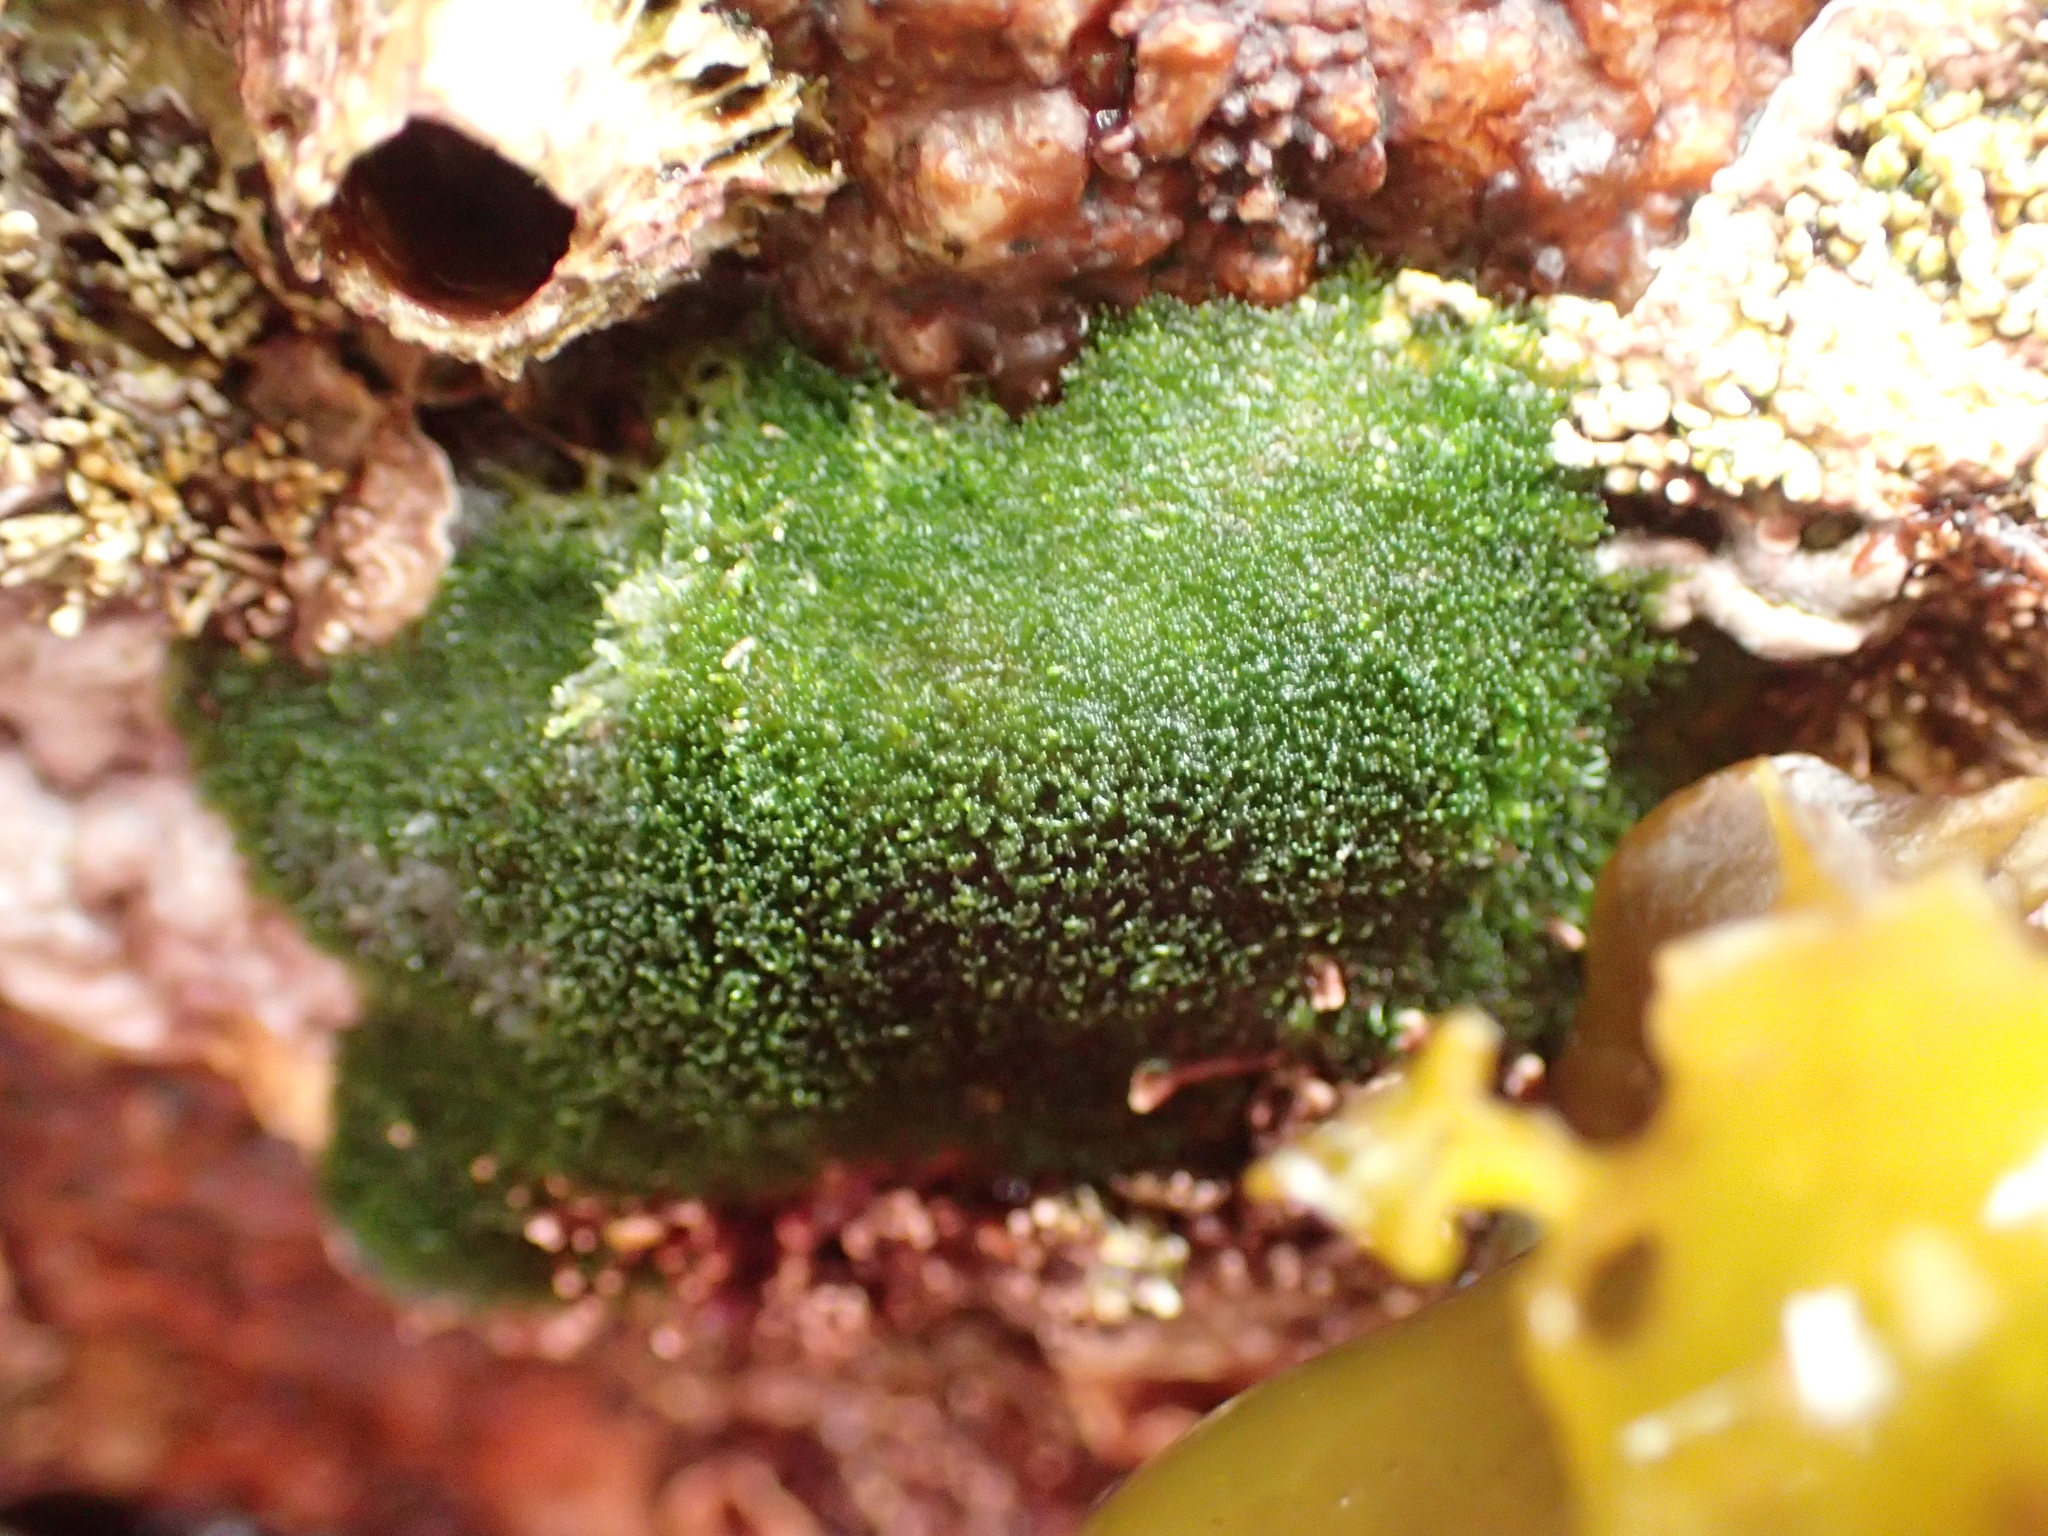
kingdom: Plantae
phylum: Chlorophyta
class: Ulvophyceae
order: Cladophorales
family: Cladophoraceae
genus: Cladophora
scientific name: Cladophora columbiana
